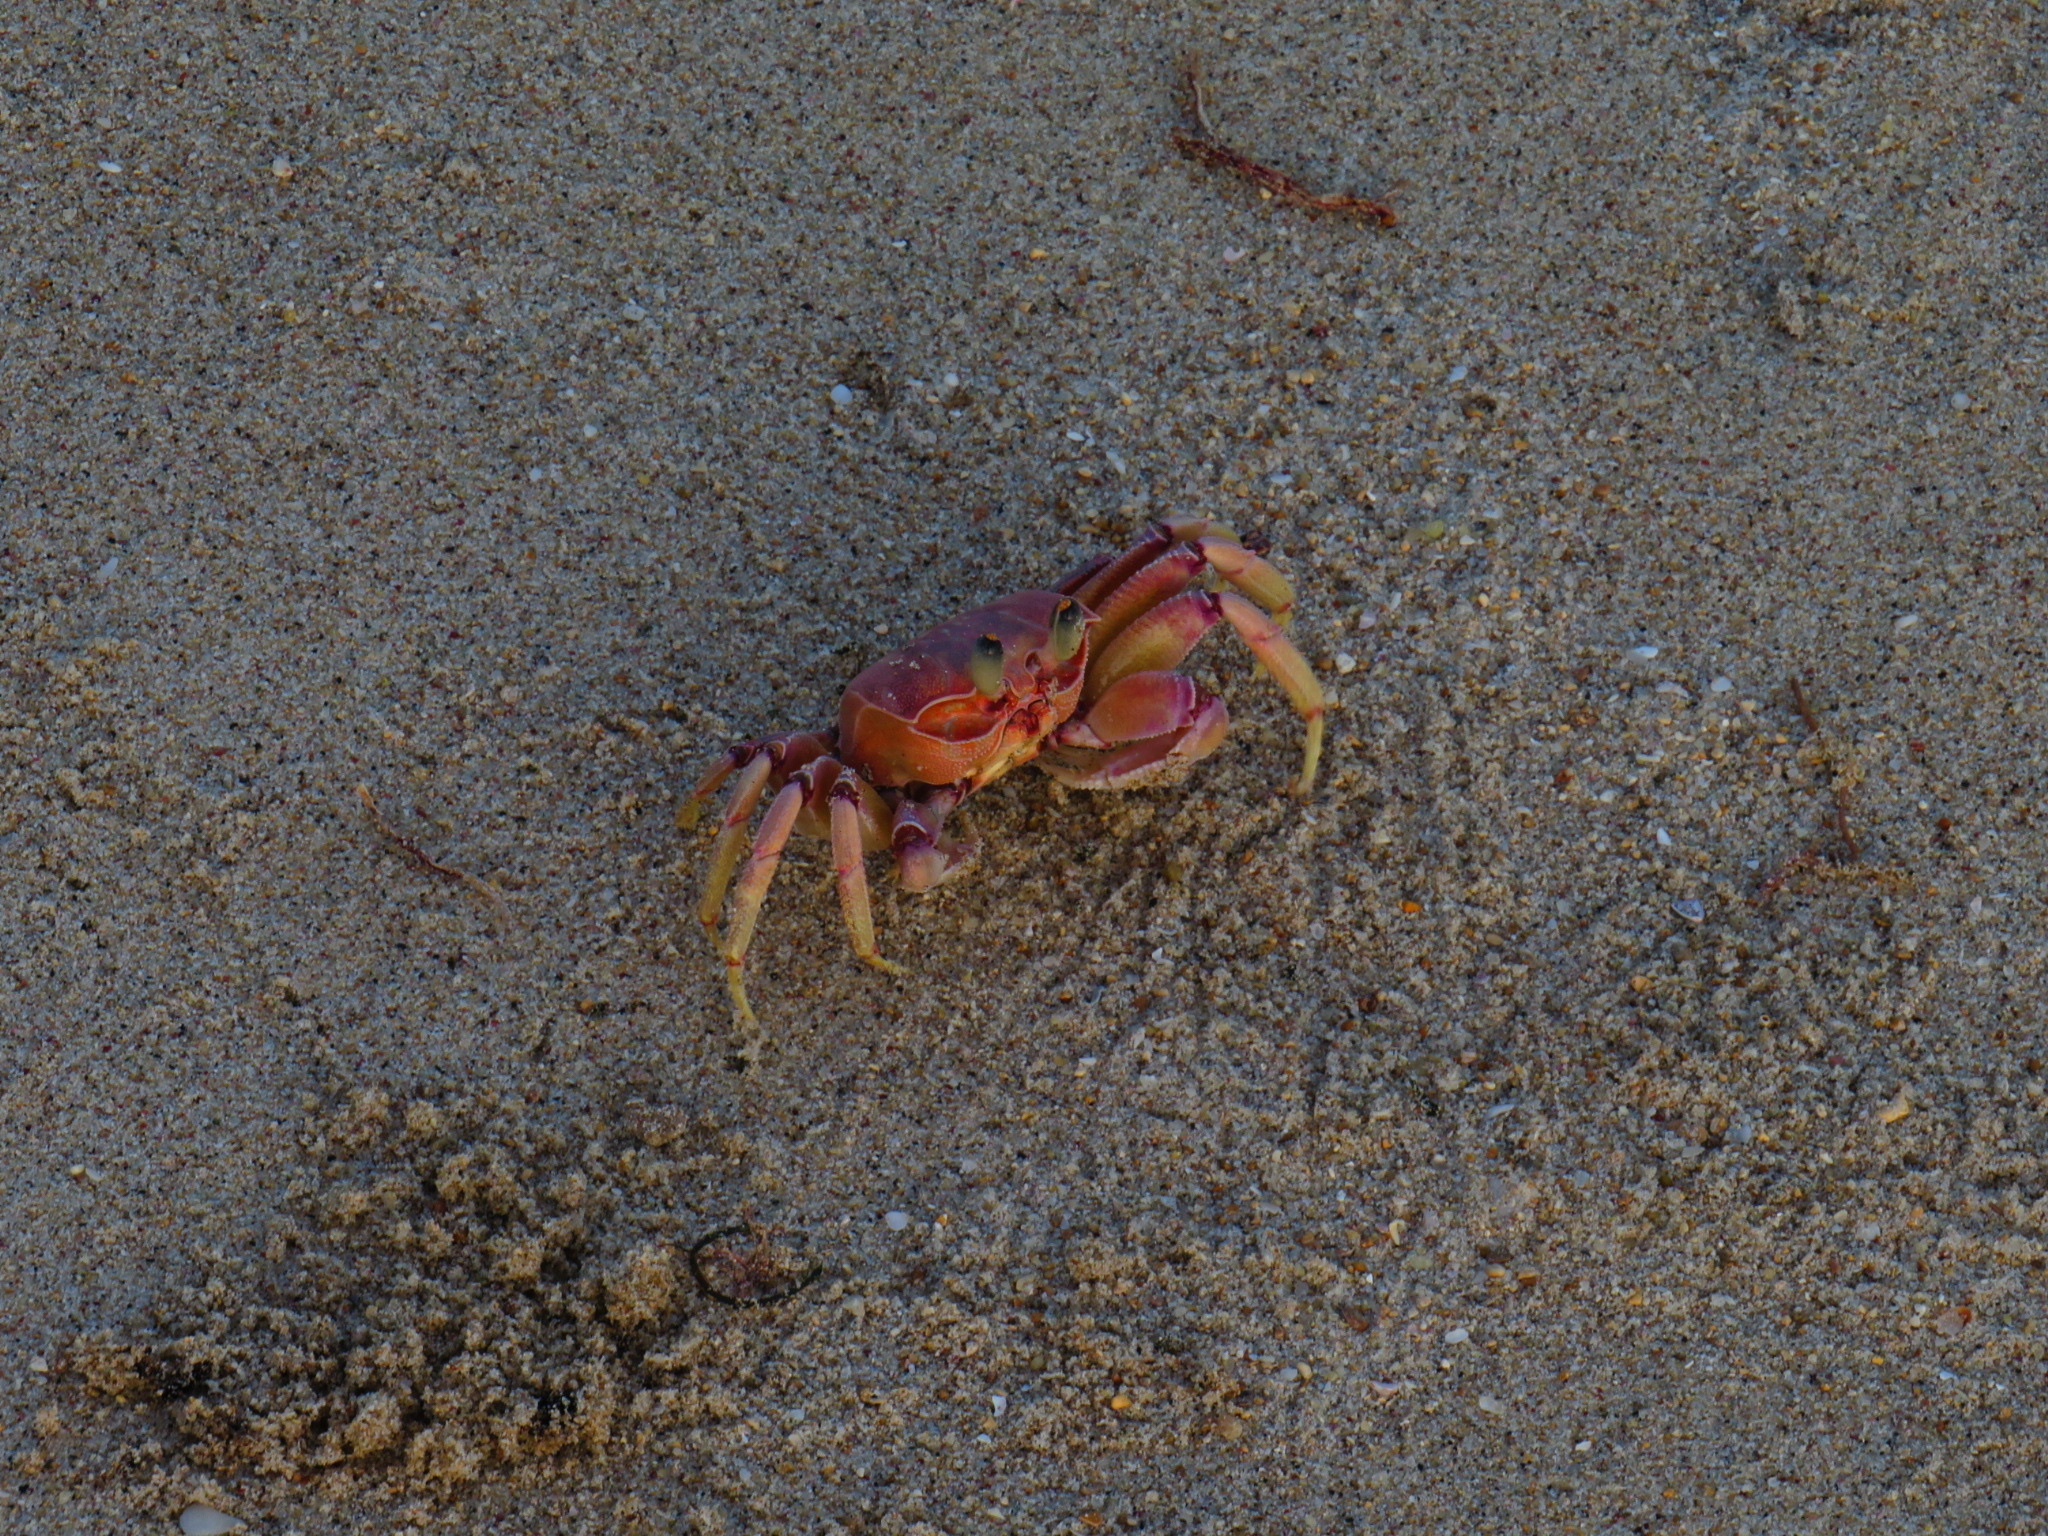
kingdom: Animalia
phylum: Arthropoda
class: Malacostraca
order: Decapoda
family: Ocypodidae
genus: Ocypode
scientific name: Ocypode ryderi
